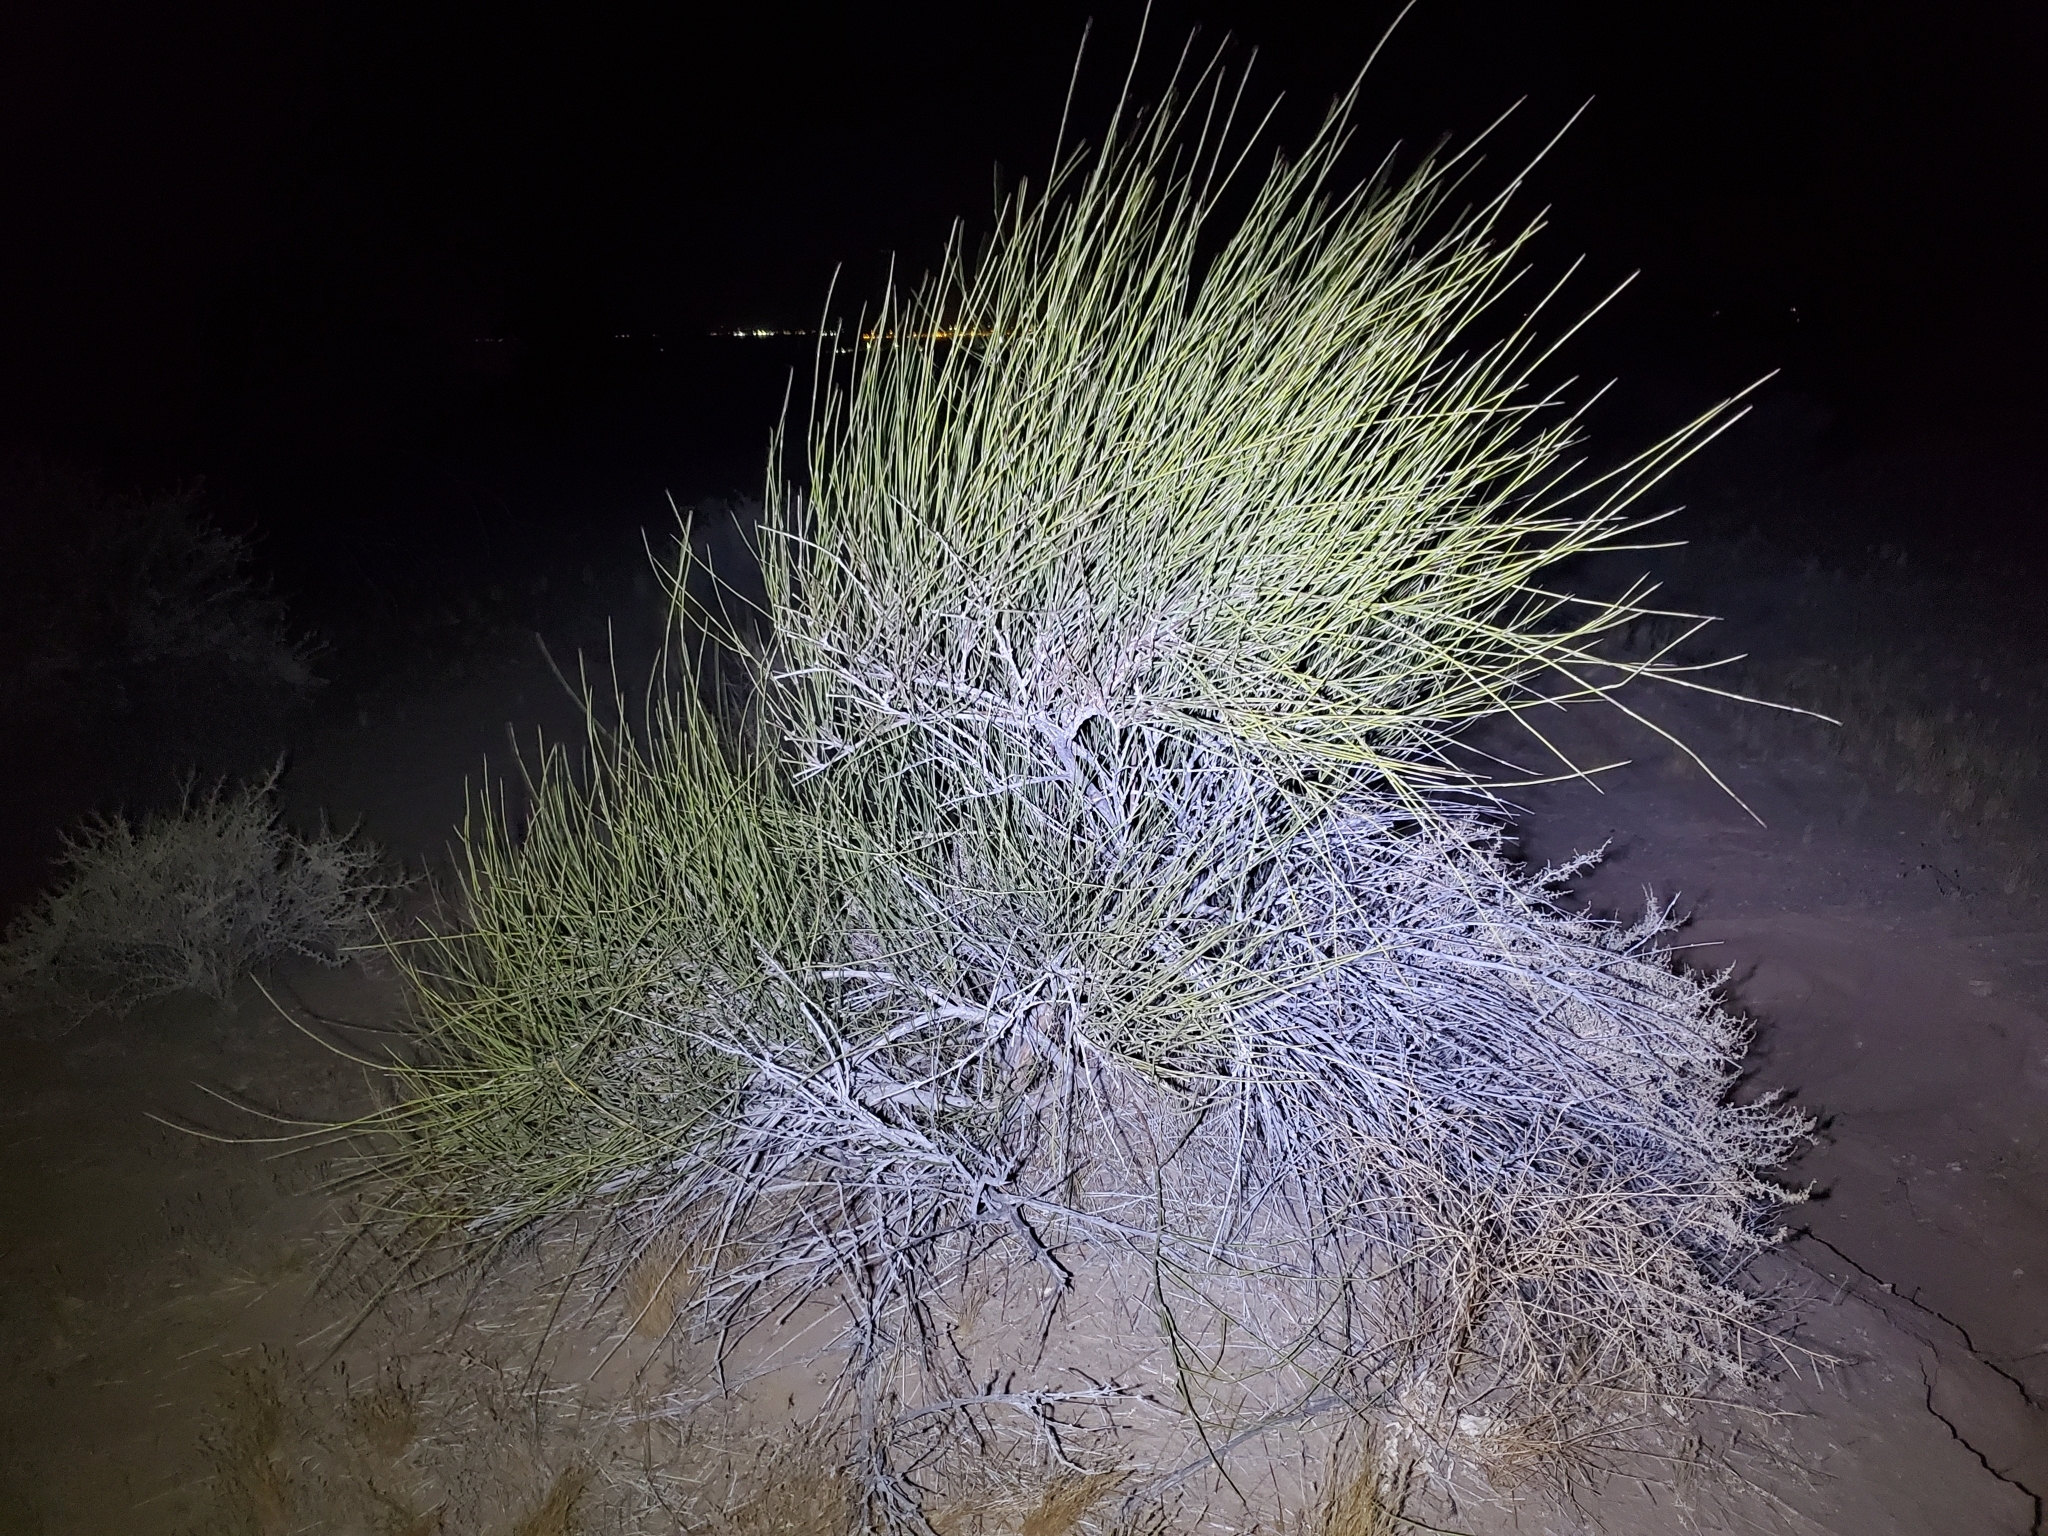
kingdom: Plantae
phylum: Tracheophyta
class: Gnetopsida
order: Ephedrales
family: Ephedraceae
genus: Ephedra
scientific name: Ephedra trifurca
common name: Mexican-tea
